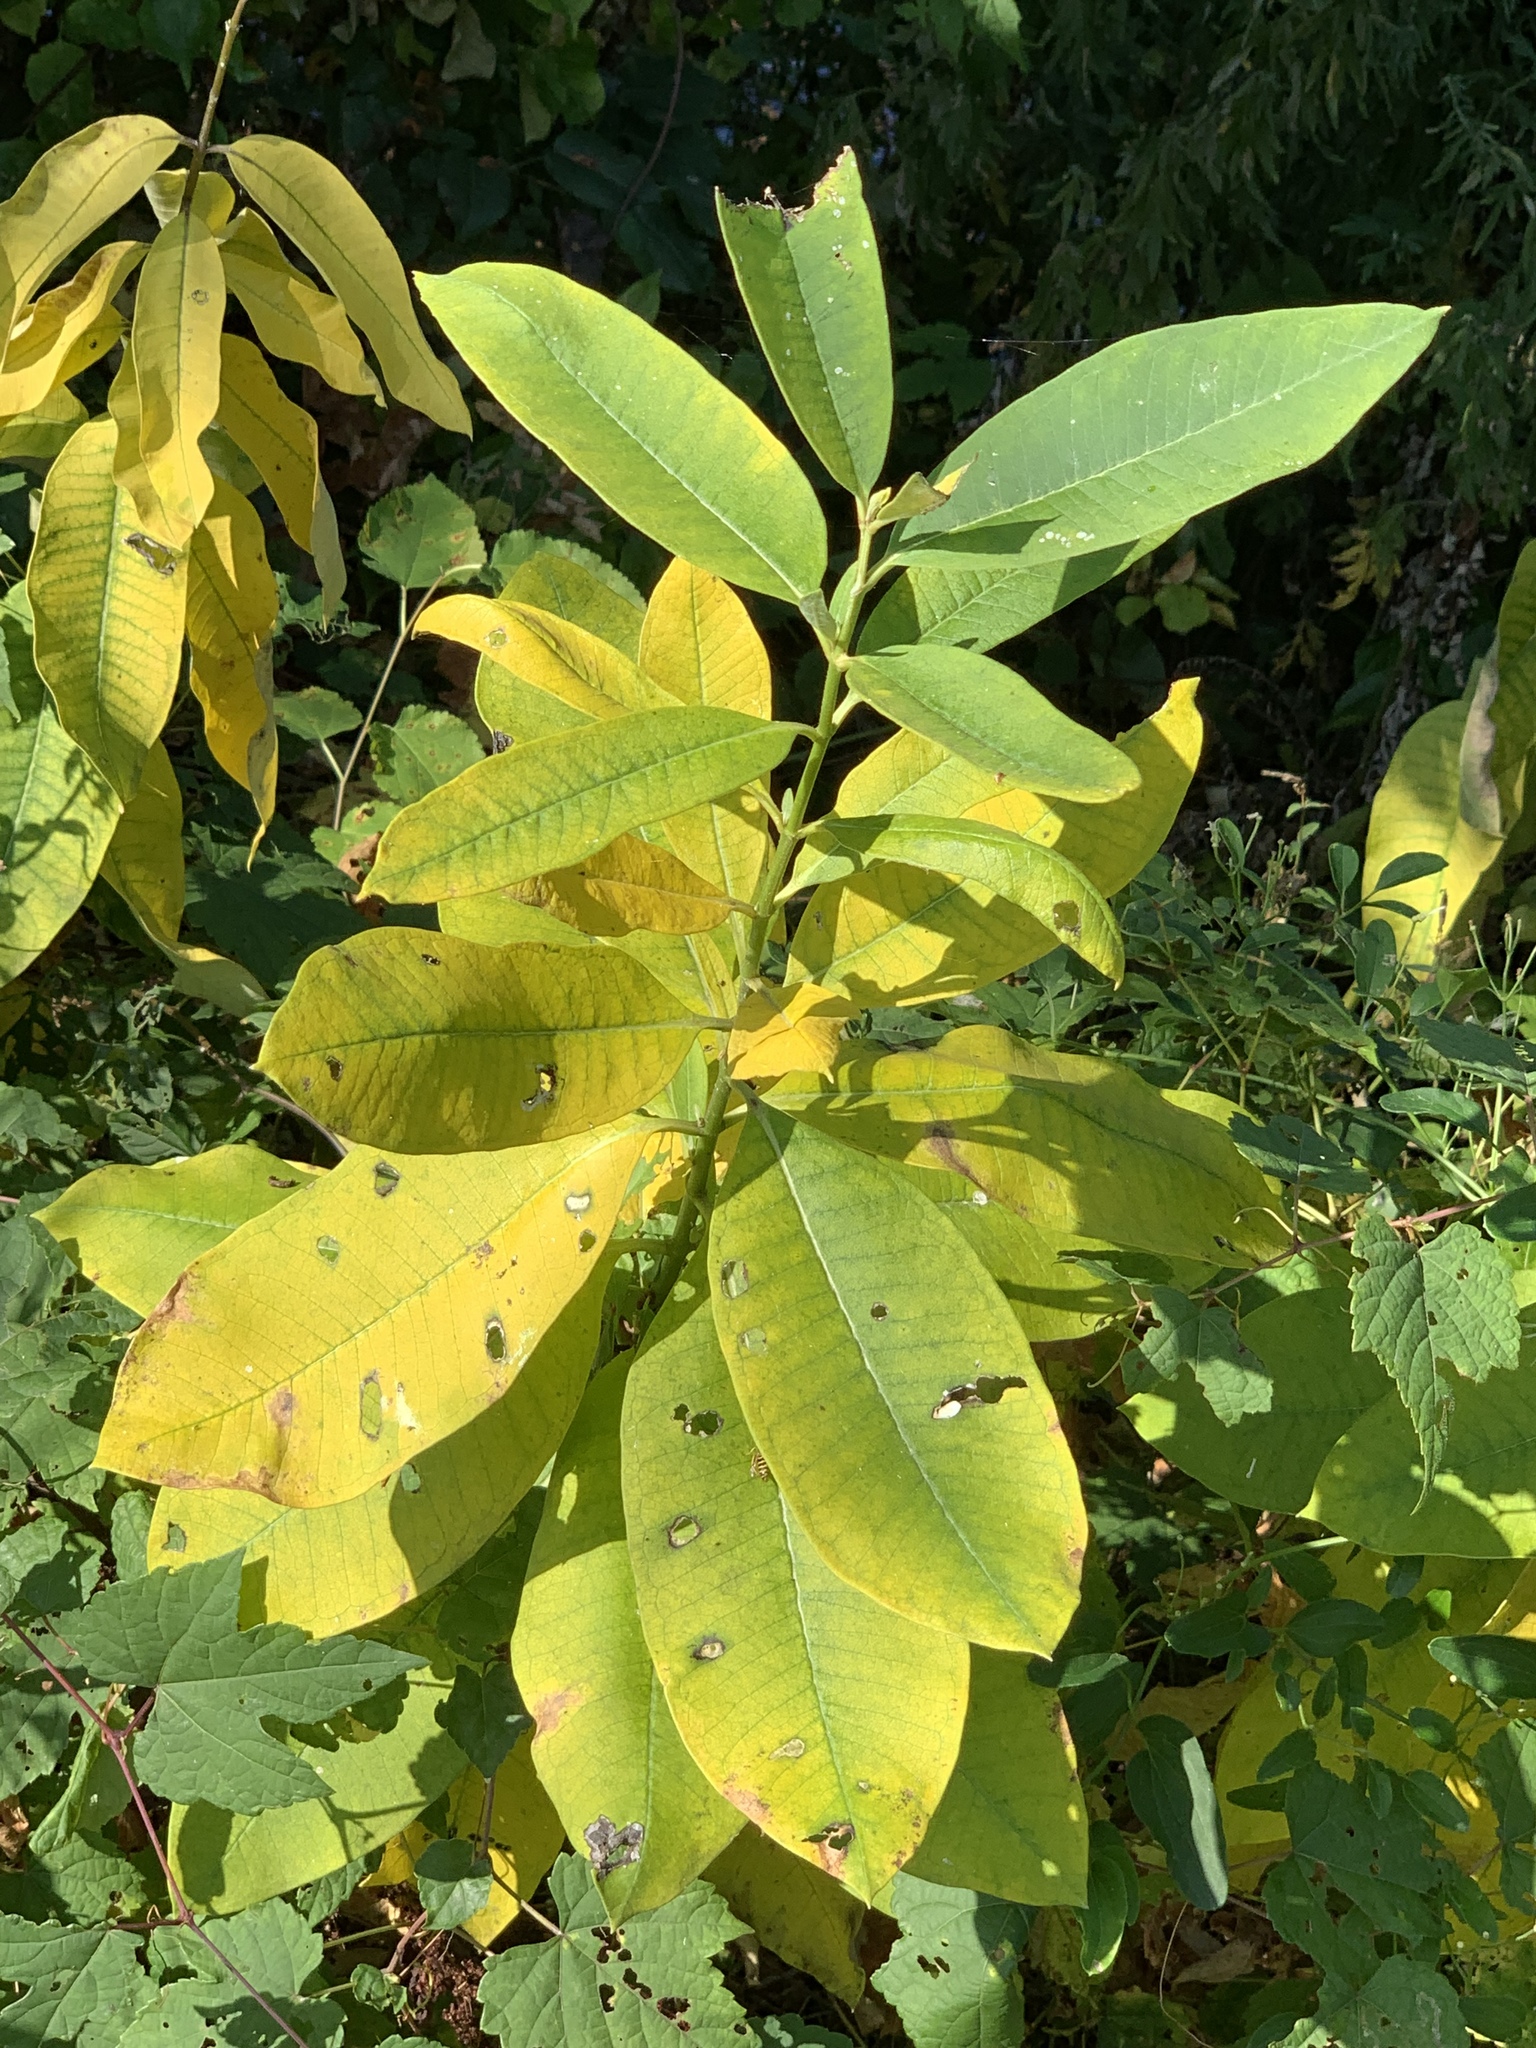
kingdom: Plantae
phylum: Tracheophyta
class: Magnoliopsida
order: Gentianales
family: Apocynaceae
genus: Asclepias
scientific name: Asclepias syriaca
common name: Common milkweed
